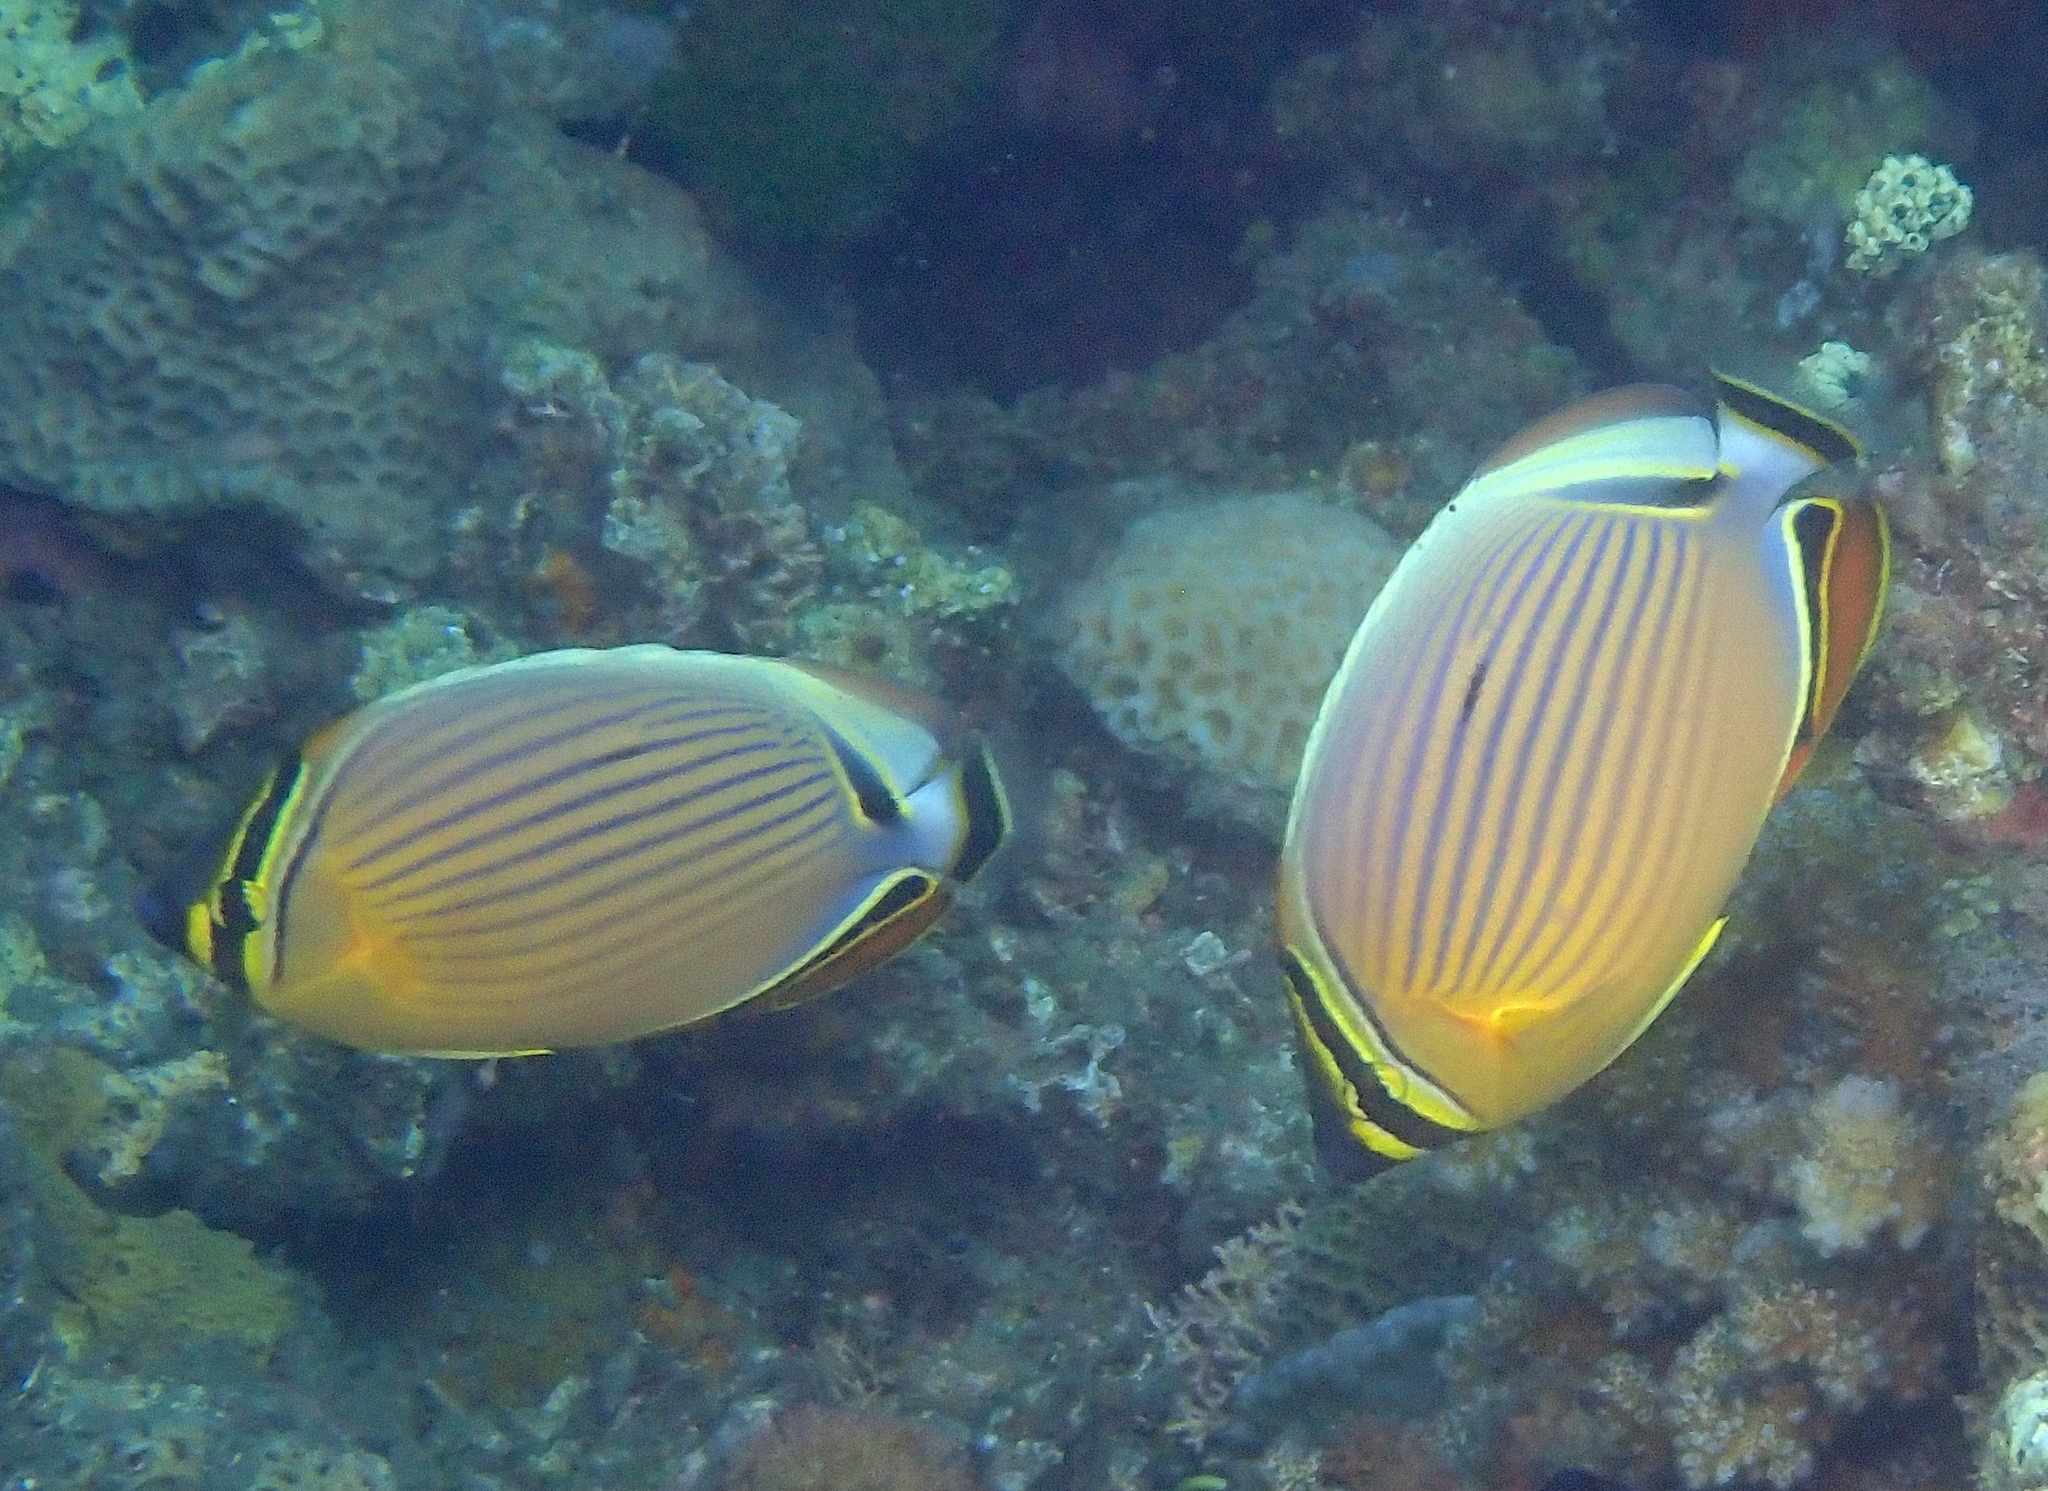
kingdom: Animalia
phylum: Chordata
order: Perciformes
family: Chaetodontidae
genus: Chaetodon
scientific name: Chaetodon lunulatus
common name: Redfin butterflyfish
